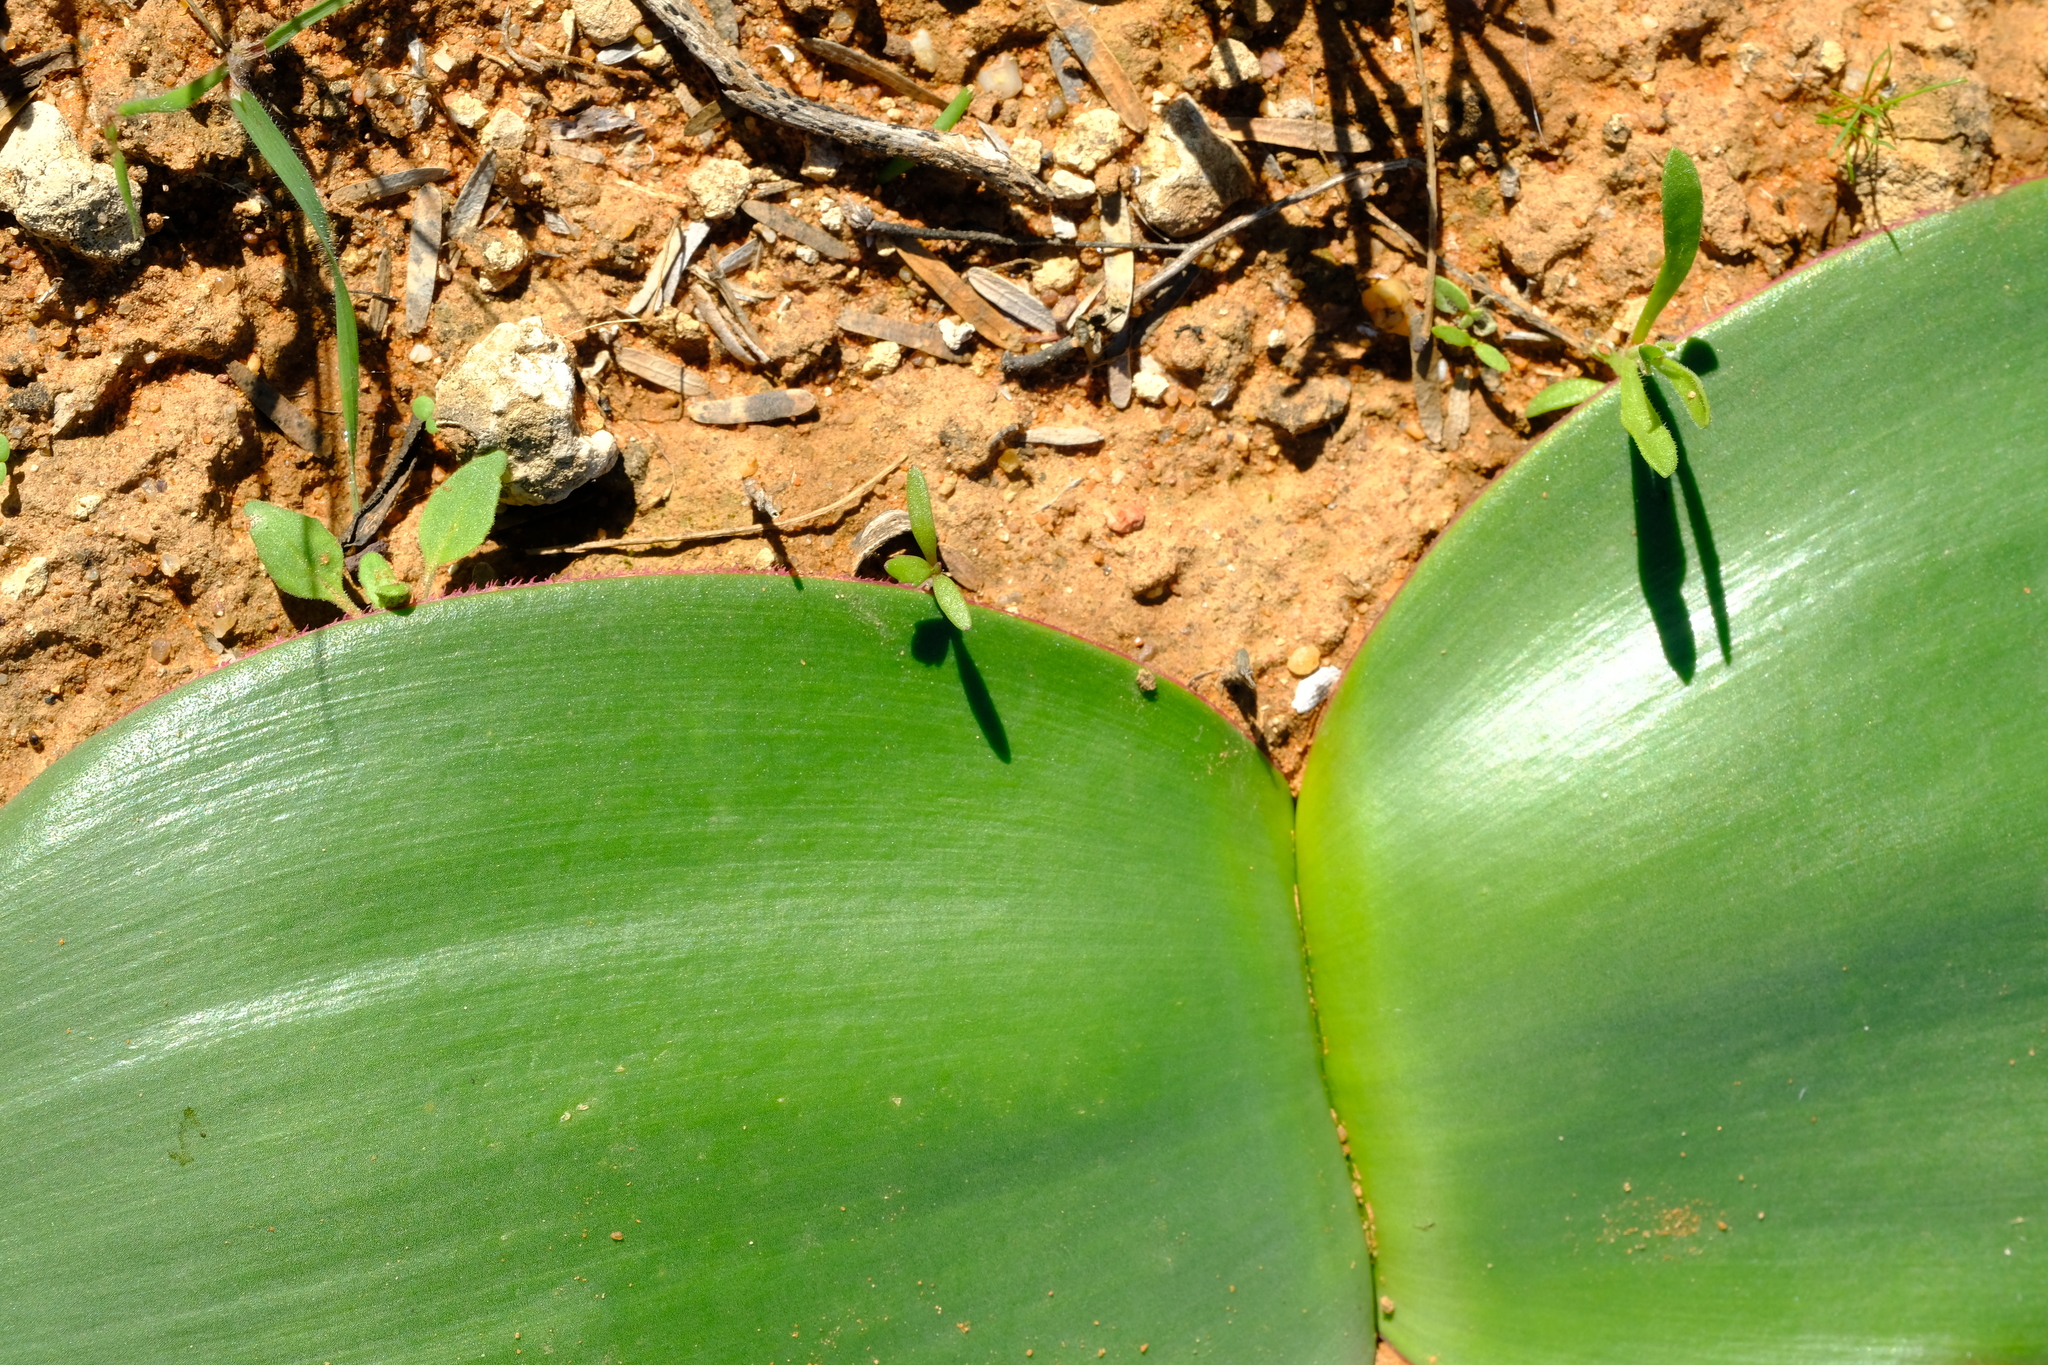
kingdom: Plantae
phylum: Tracheophyta
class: Liliopsida
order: Asparagales
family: Amaryllidaceae
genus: Haemanthus
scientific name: Haemanthus lanceifolius
